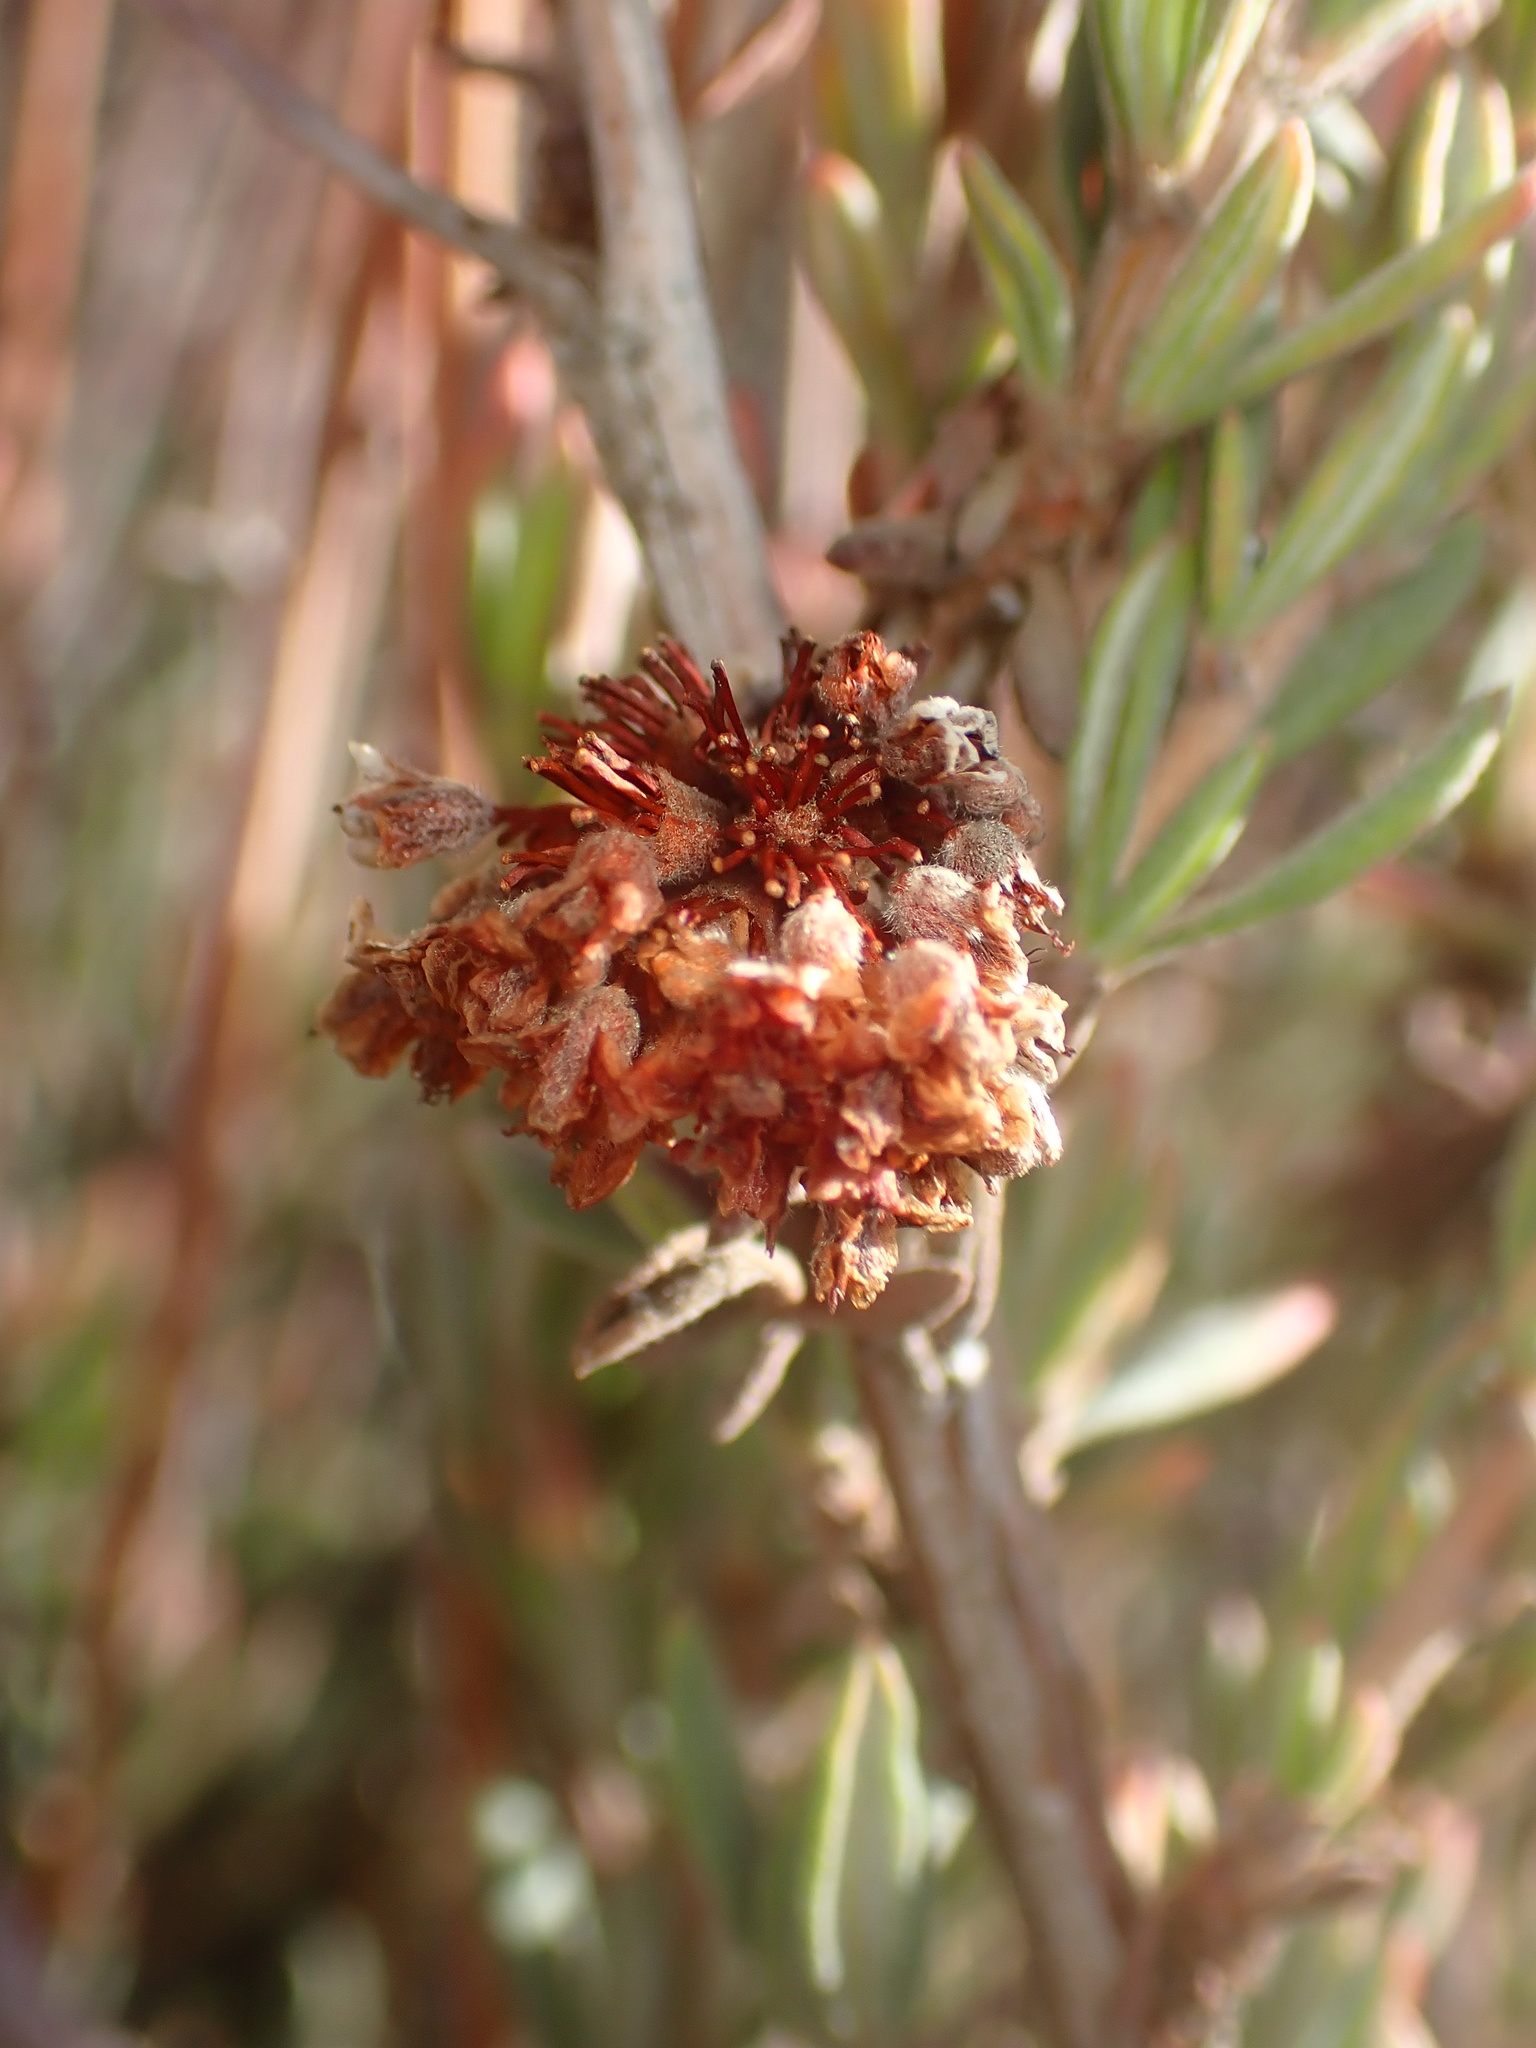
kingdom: Plantae
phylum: Tracheophyta
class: Magnoliopsida
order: Caryophyllales
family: Polygonaceae
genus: Eriogonum
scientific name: Eriogonum fasciculatum
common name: California wild buckwheat
